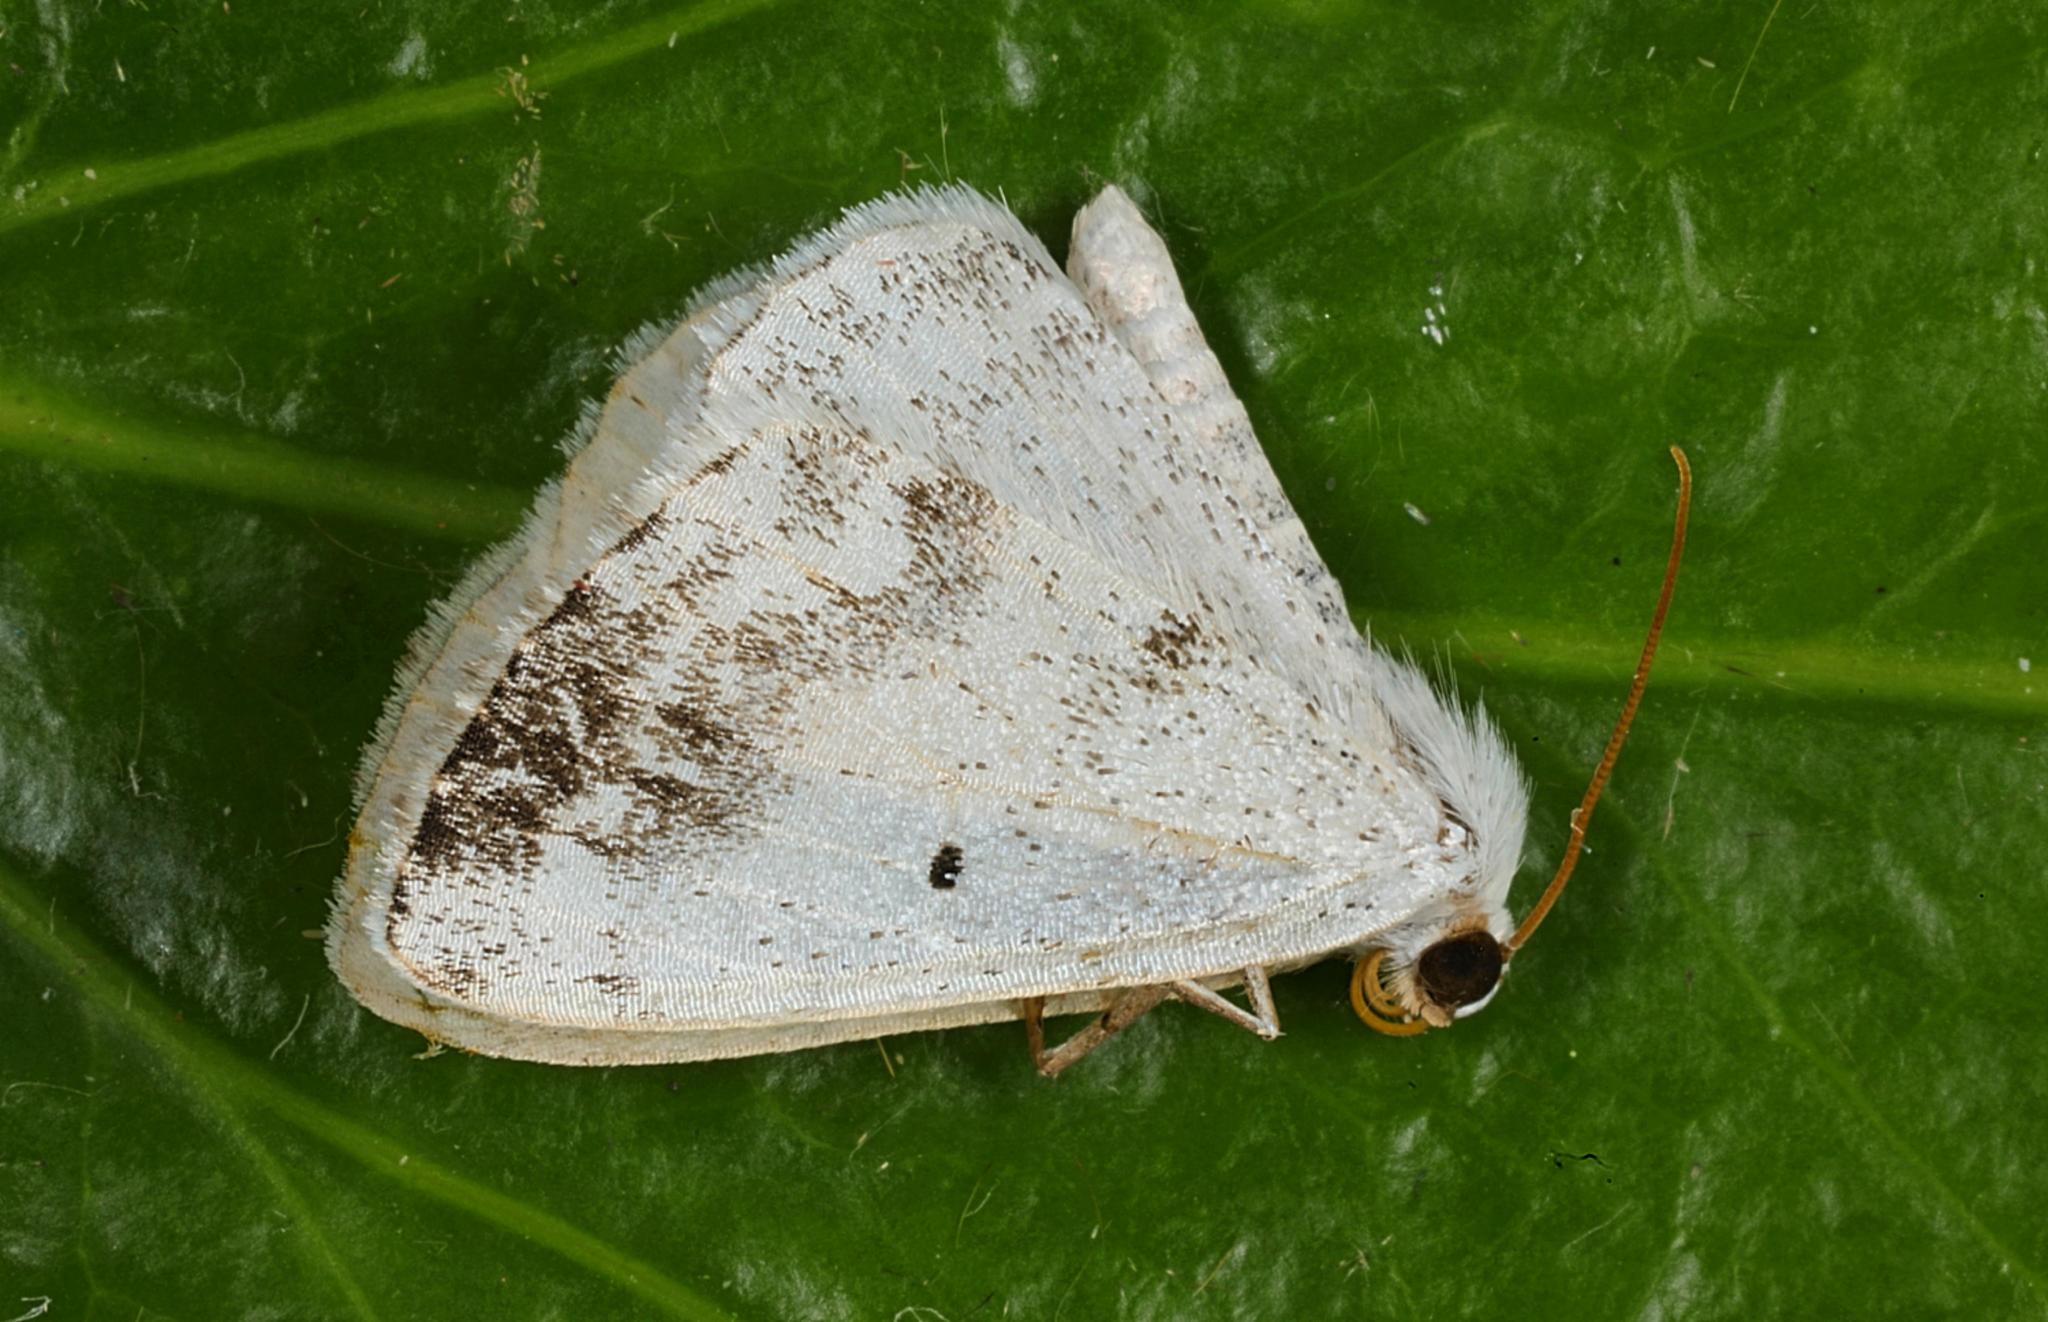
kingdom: Animalia
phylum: Arthropoda
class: Insecta
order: Lepidoptera
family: Geometridae
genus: Lomographa
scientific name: Lomographa temerata
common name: Clouded silver
